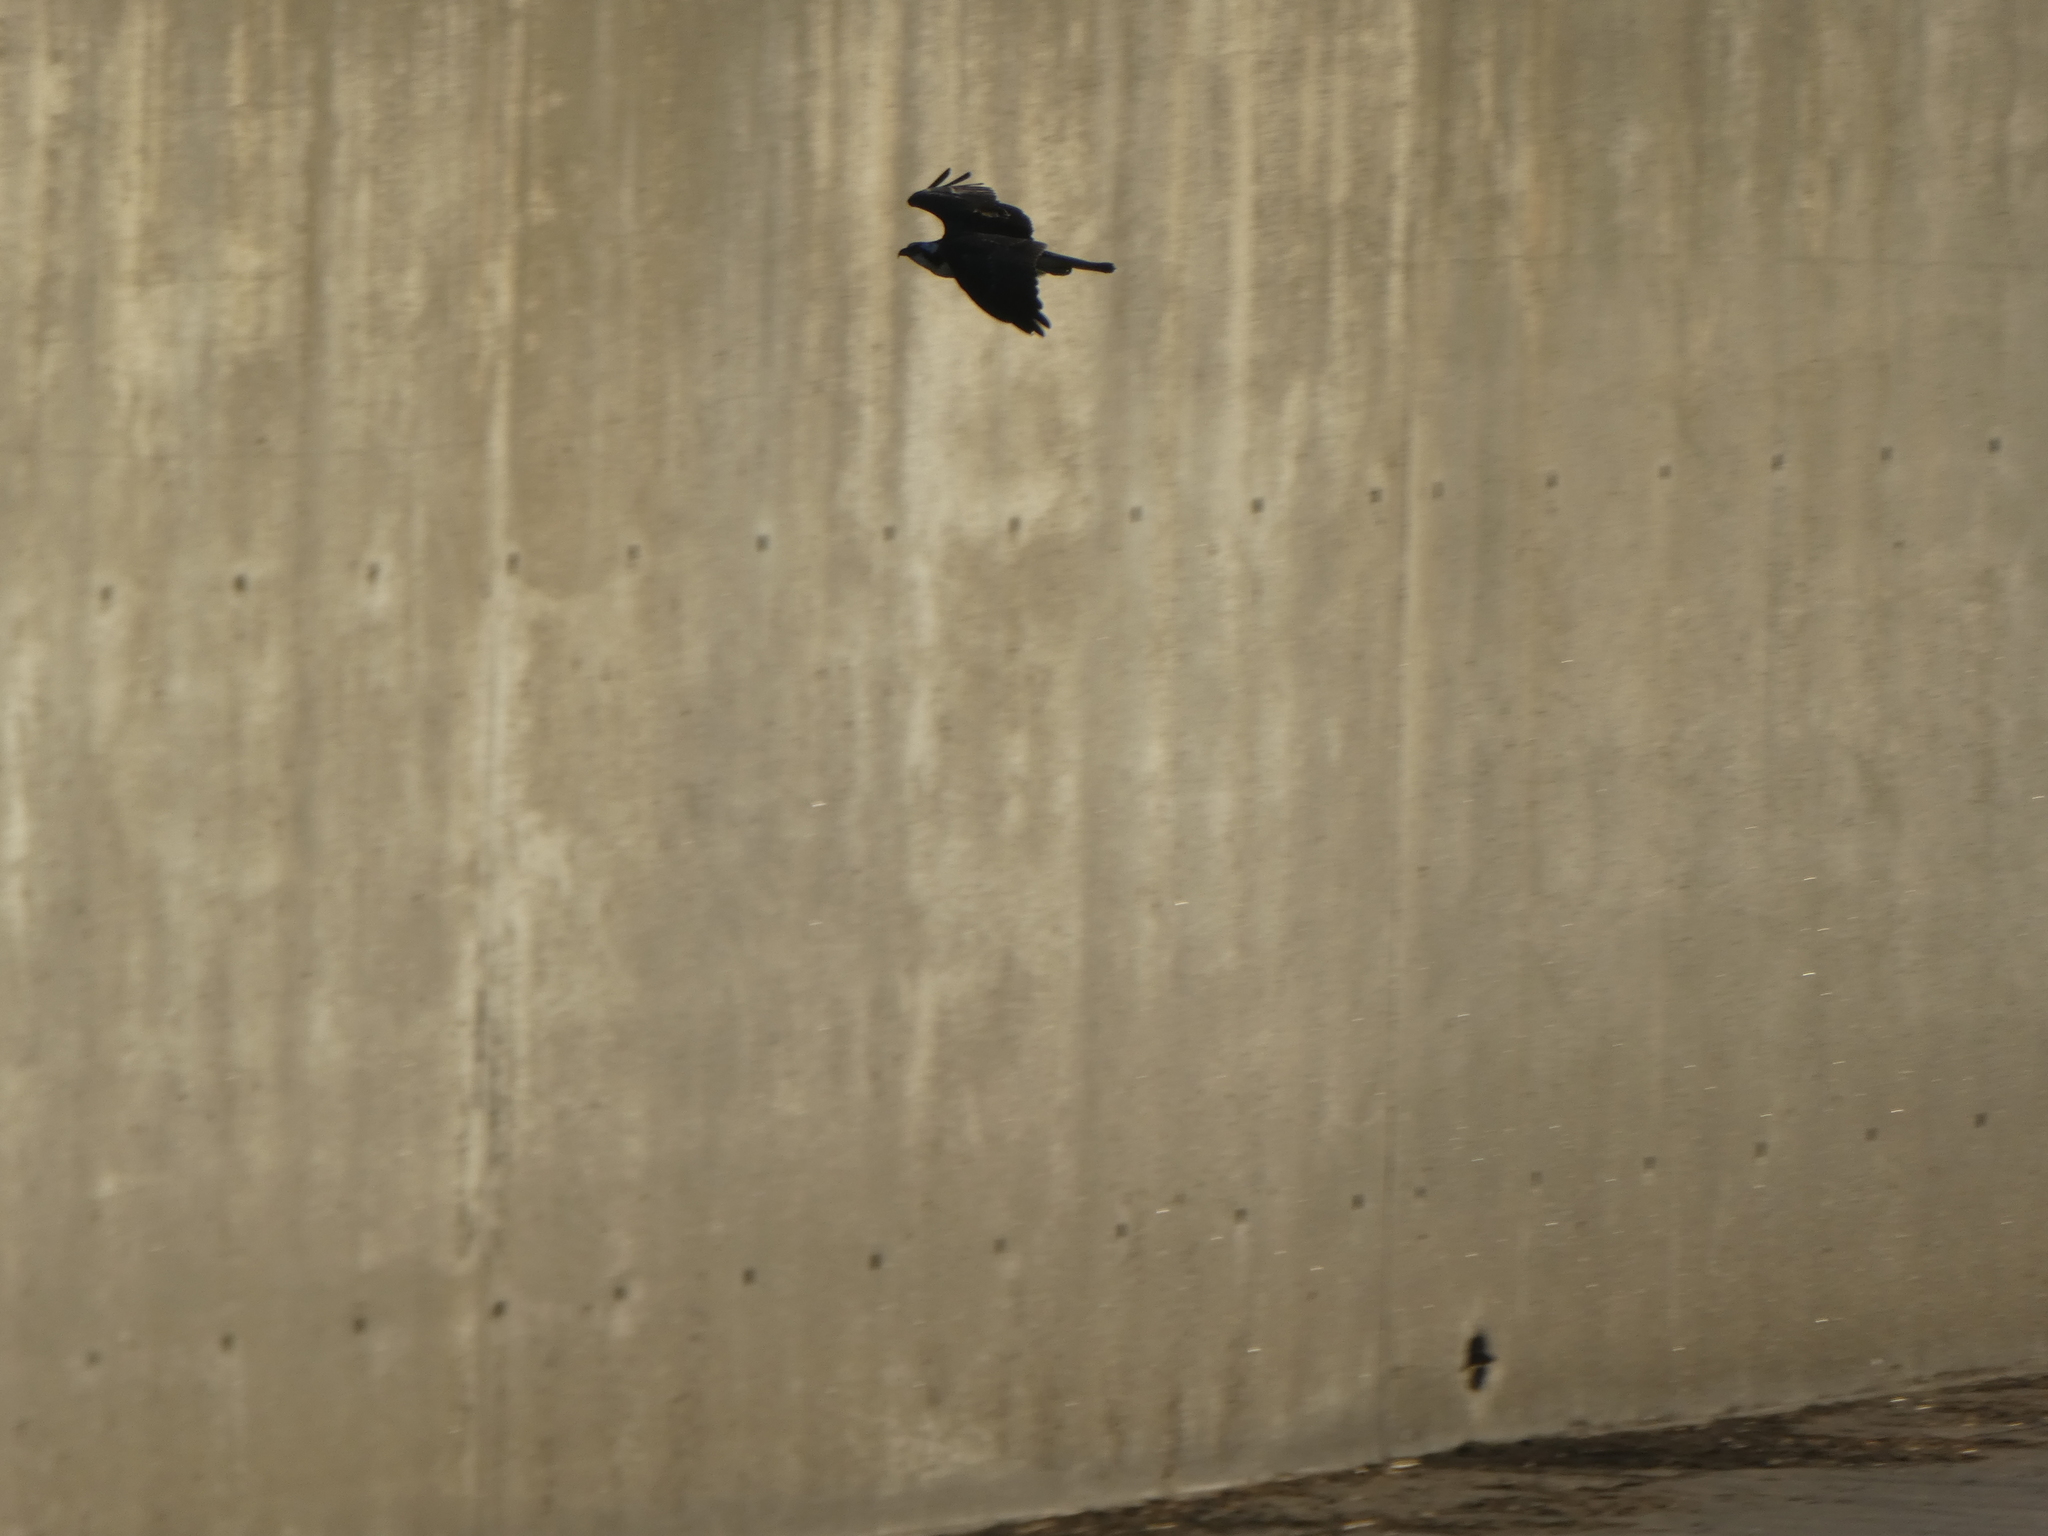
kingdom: Animalia
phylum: Chordata
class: Aves
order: Accipitriformes
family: Pandionidae
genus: Pandion
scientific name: Pandion haliaetus
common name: Osprey
